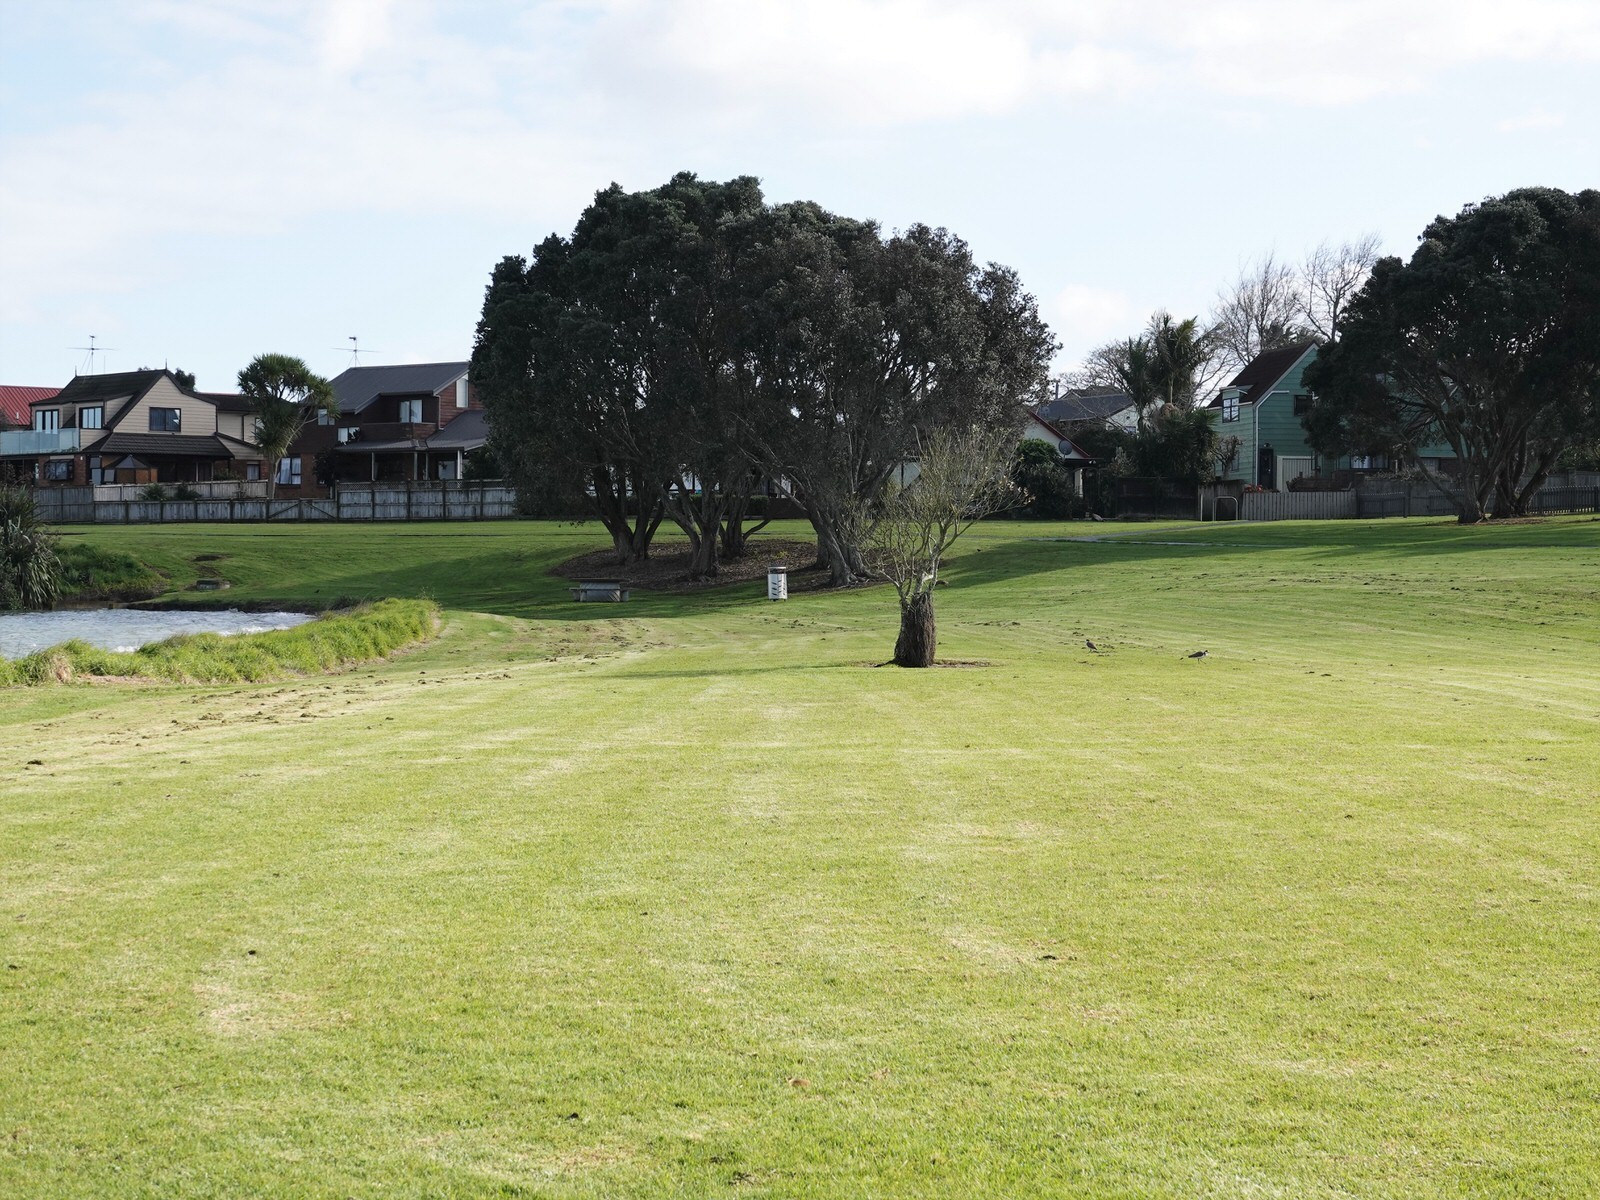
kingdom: Animalia
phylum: Chordata
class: Aves
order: Charadriiformes
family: Charadriidae
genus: Vanellus
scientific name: Vanellus miles
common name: Masked lapwing
